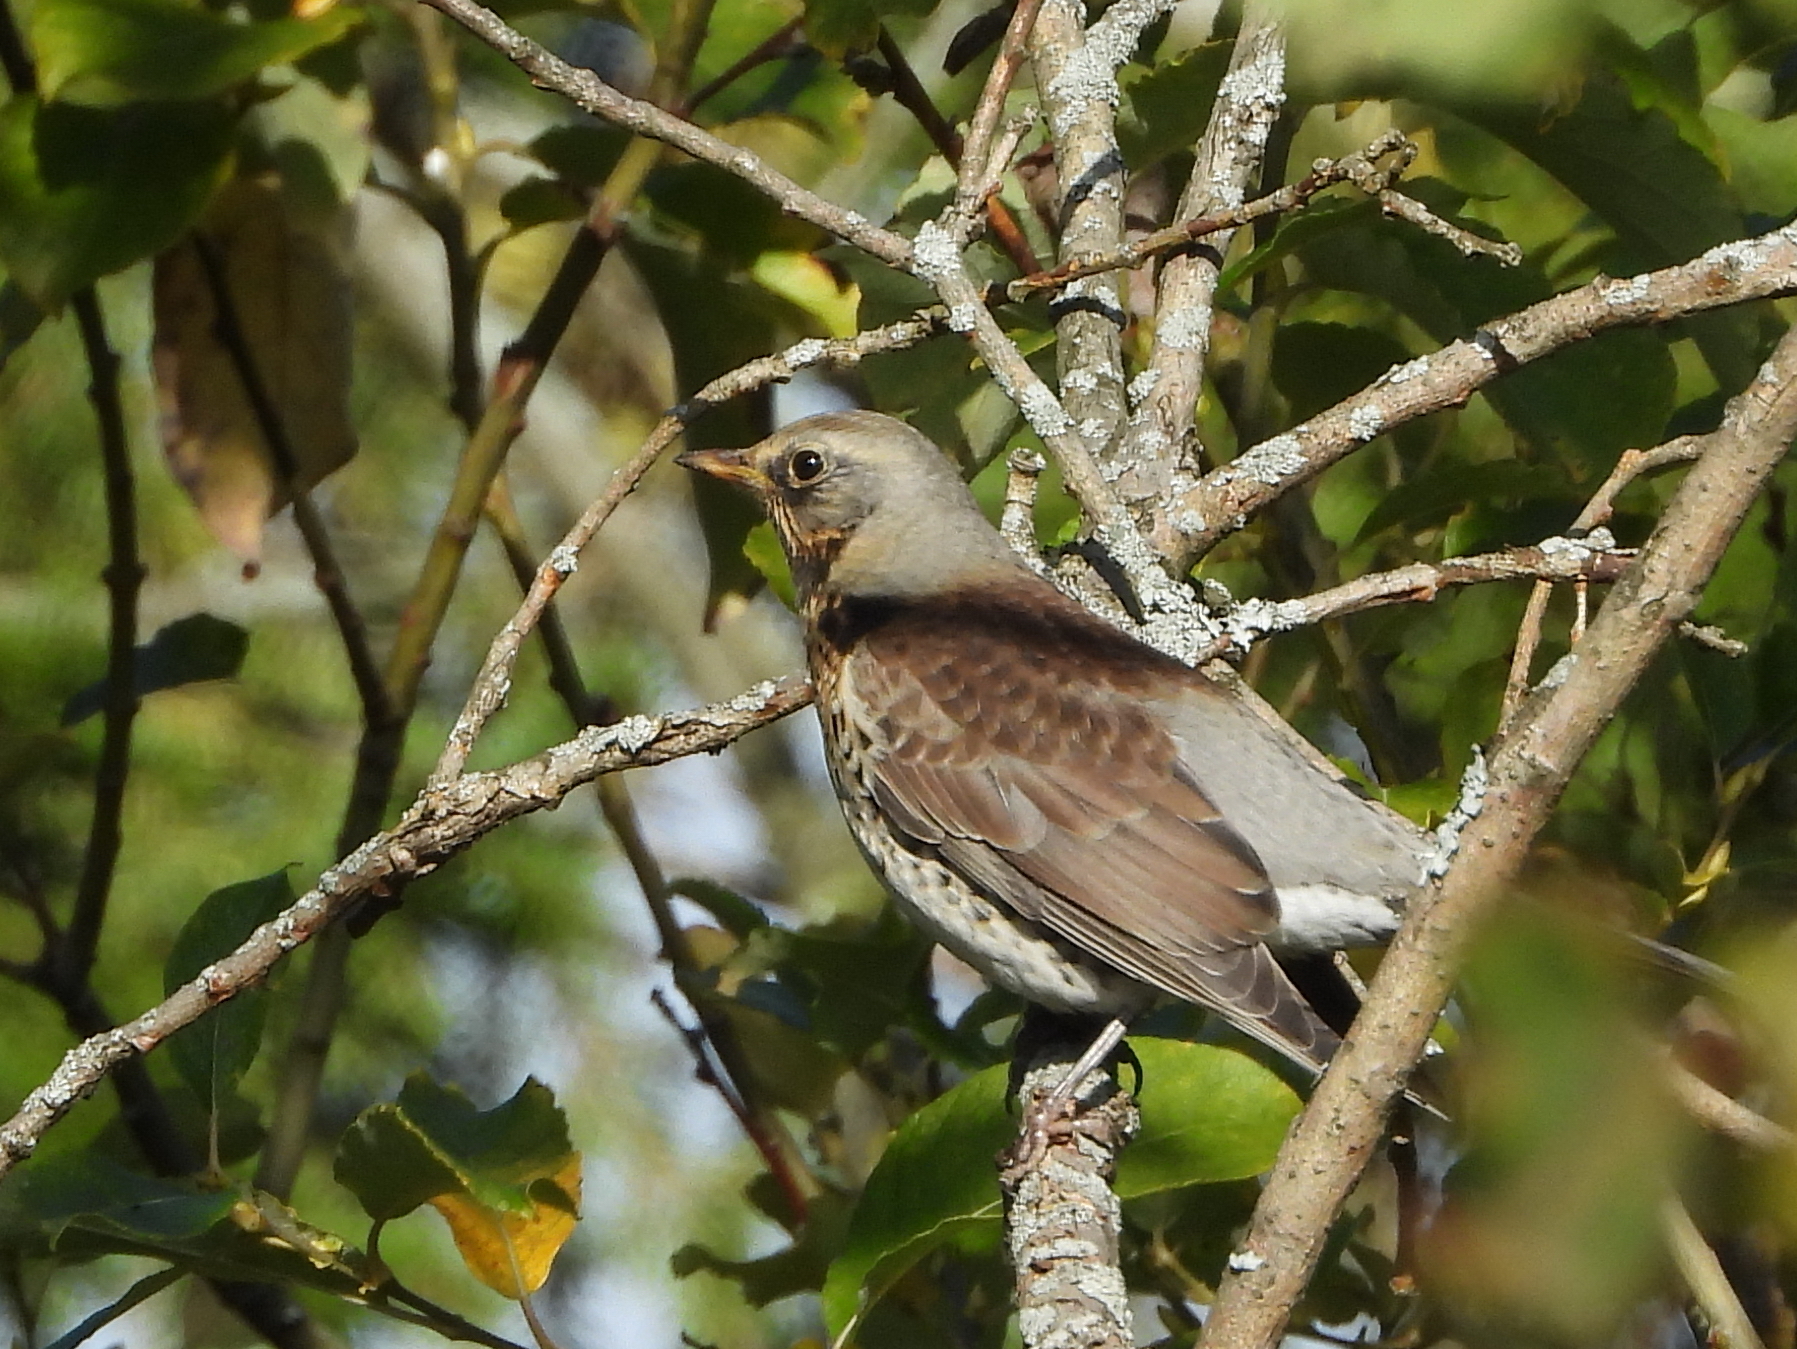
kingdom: Animalia
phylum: Chordata
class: Aves
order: Passeriformes
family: Turdidae
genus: Turdus
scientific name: Turdus pilaris
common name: Fieldfare
